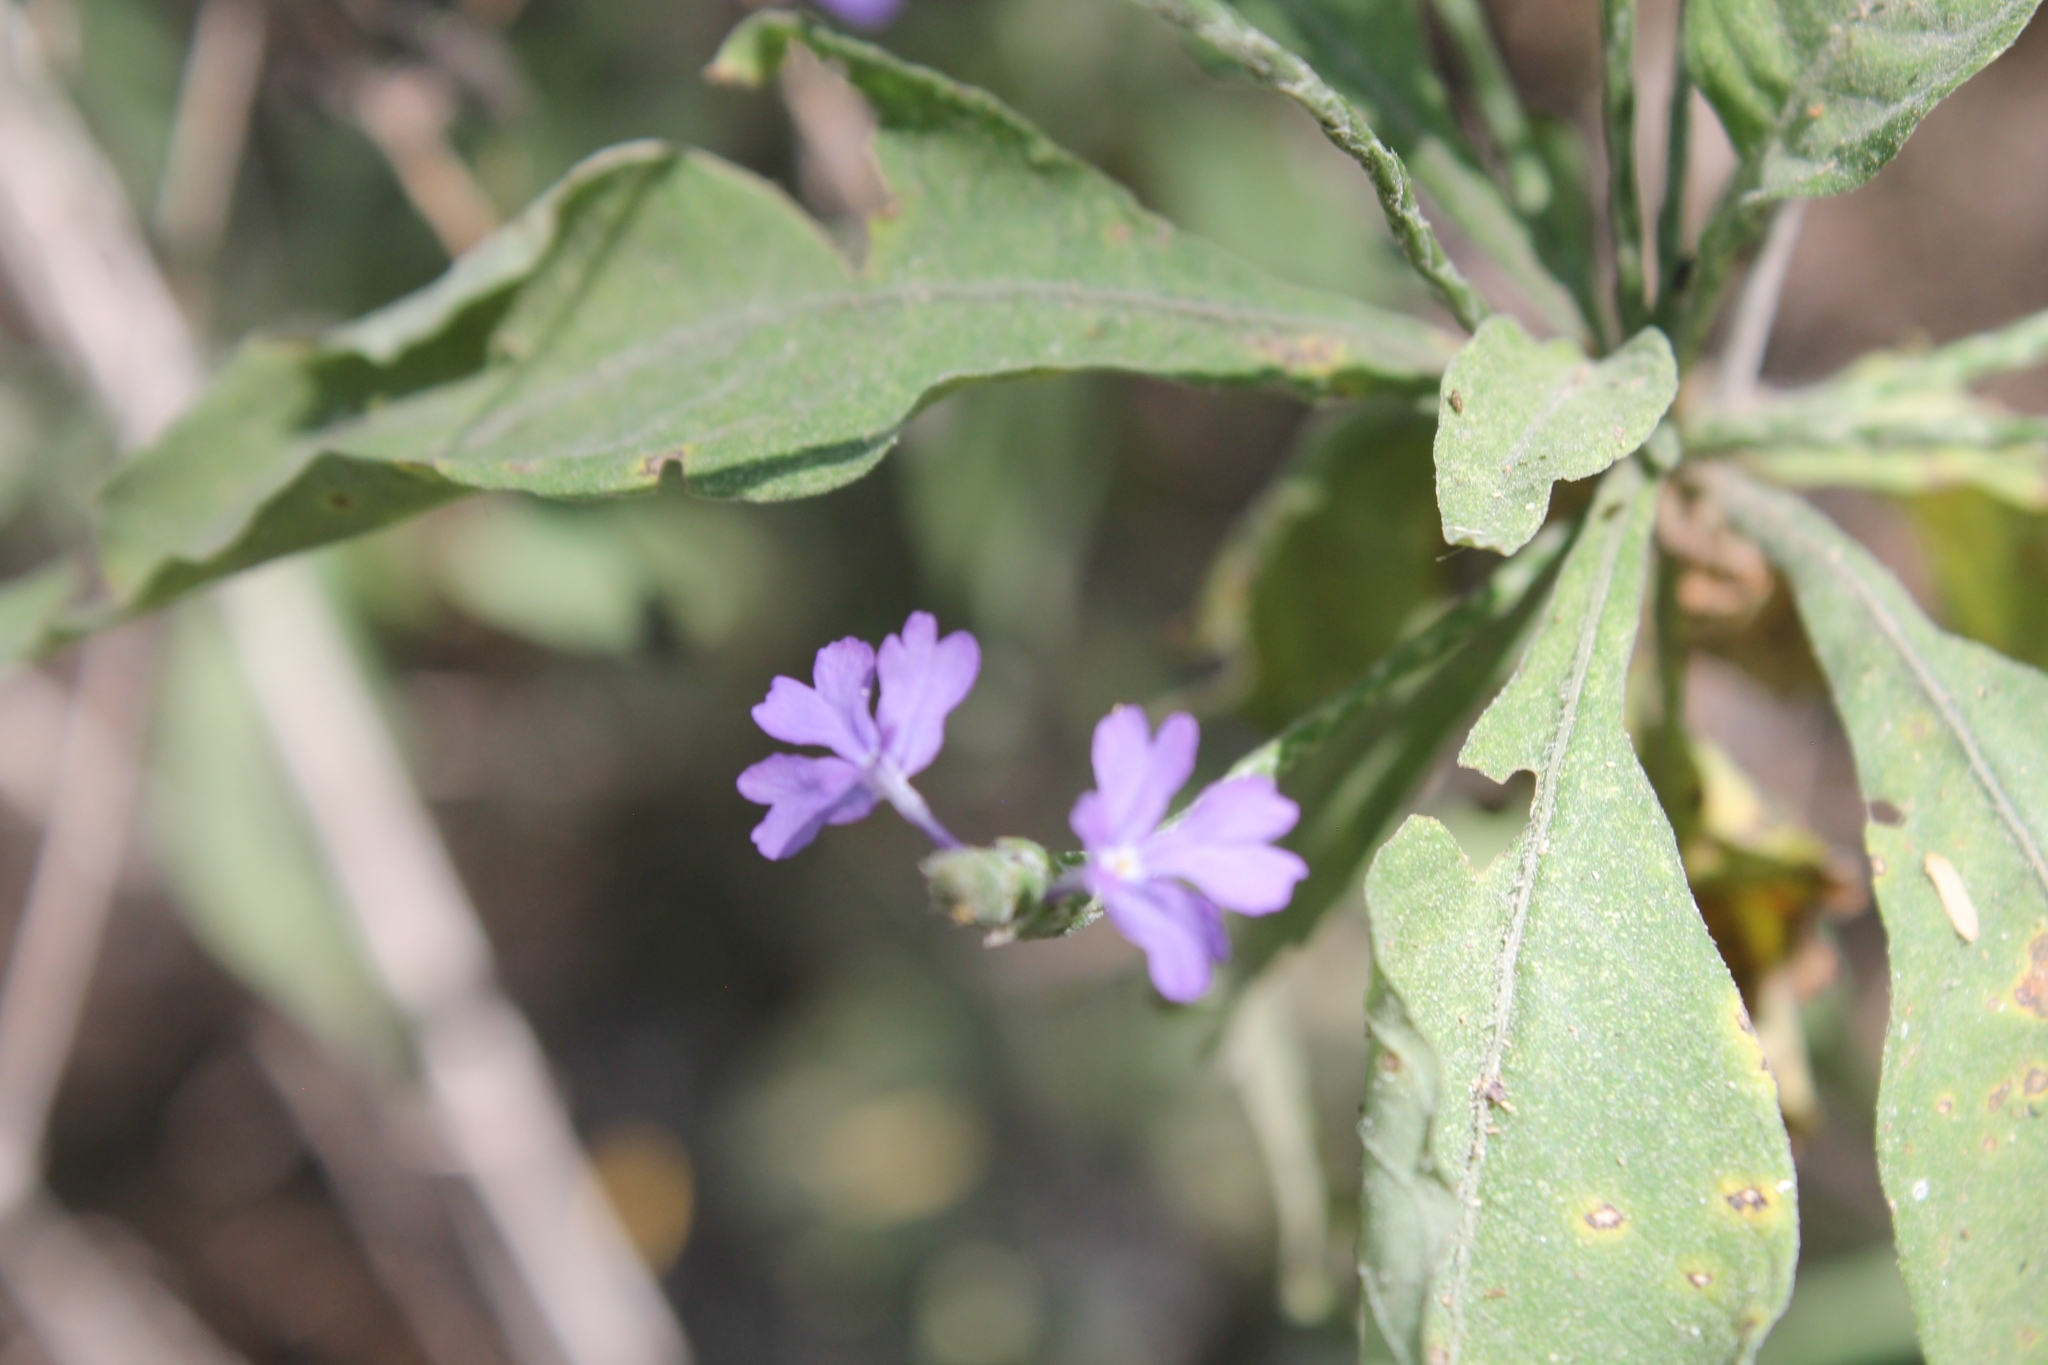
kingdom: Plantae
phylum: Tracheophyta
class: Magnoliopsida
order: Lamiales
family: Acanthaceae
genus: Elytraria
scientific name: Elytraria imbricata
